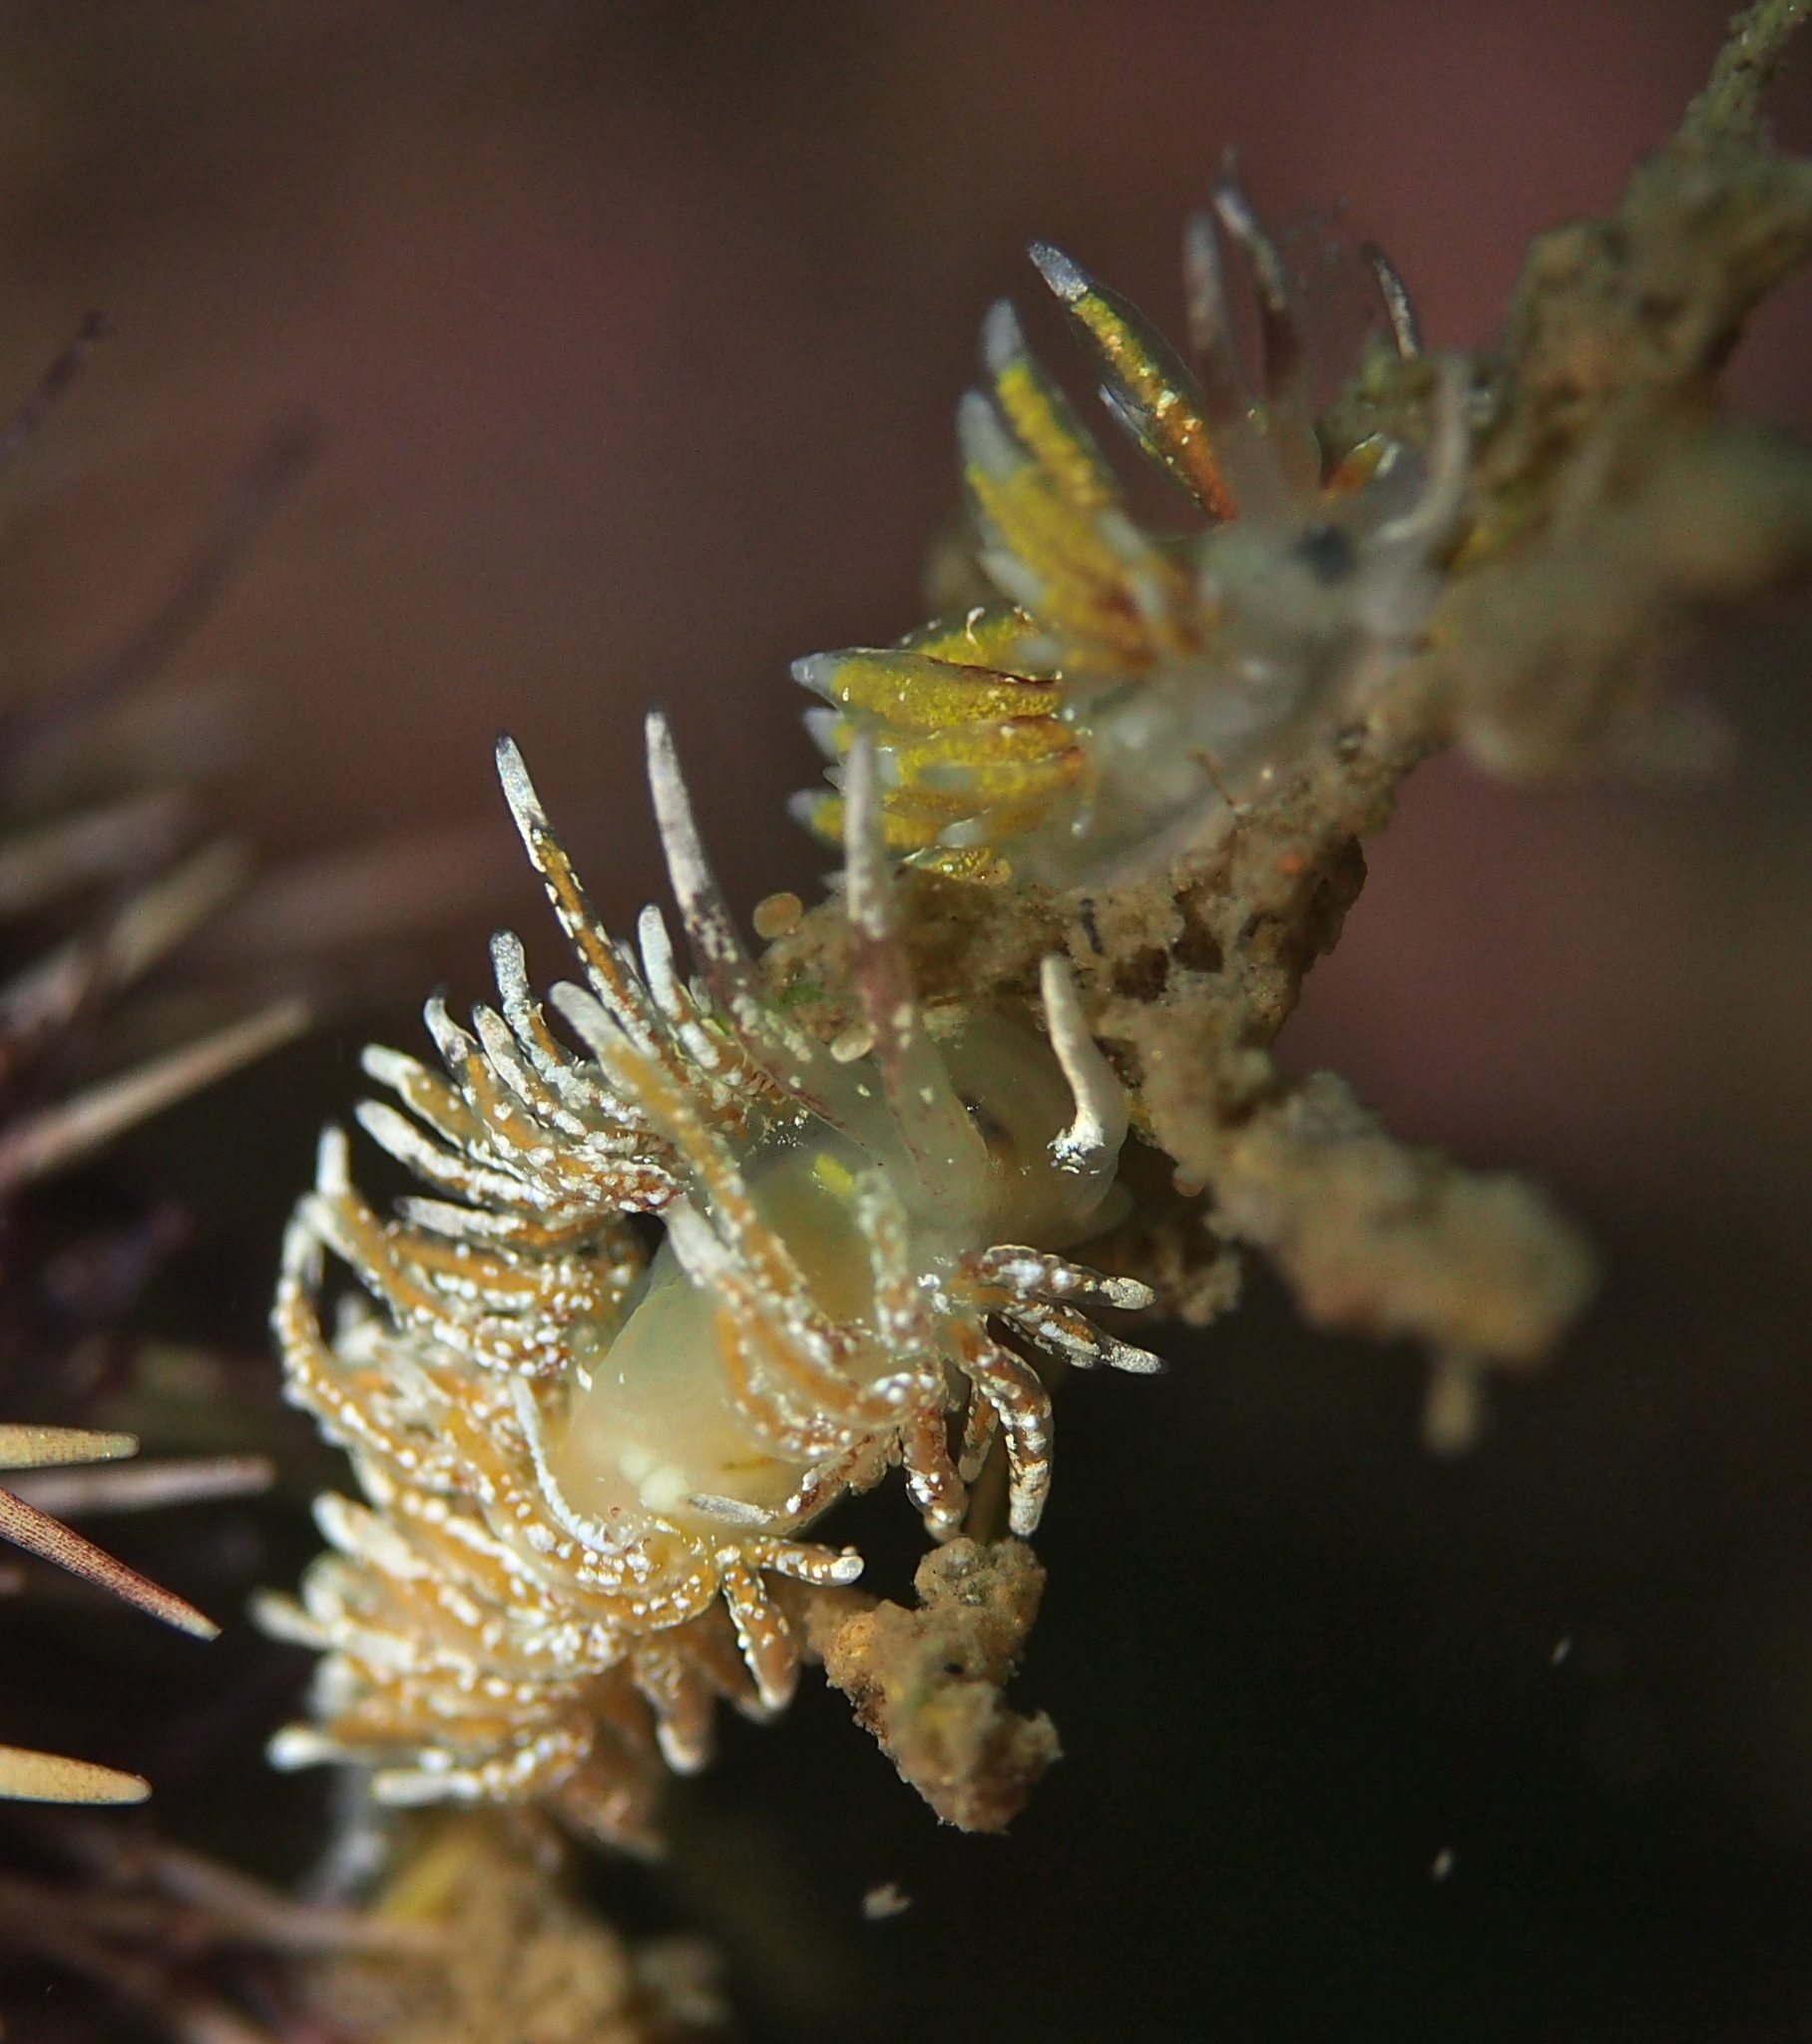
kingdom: Animalia
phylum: Mollusca
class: Gastropoda
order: Nudibranchia
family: Trinchesiidae
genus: Rubramoena
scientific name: Rubramoena rubescens
